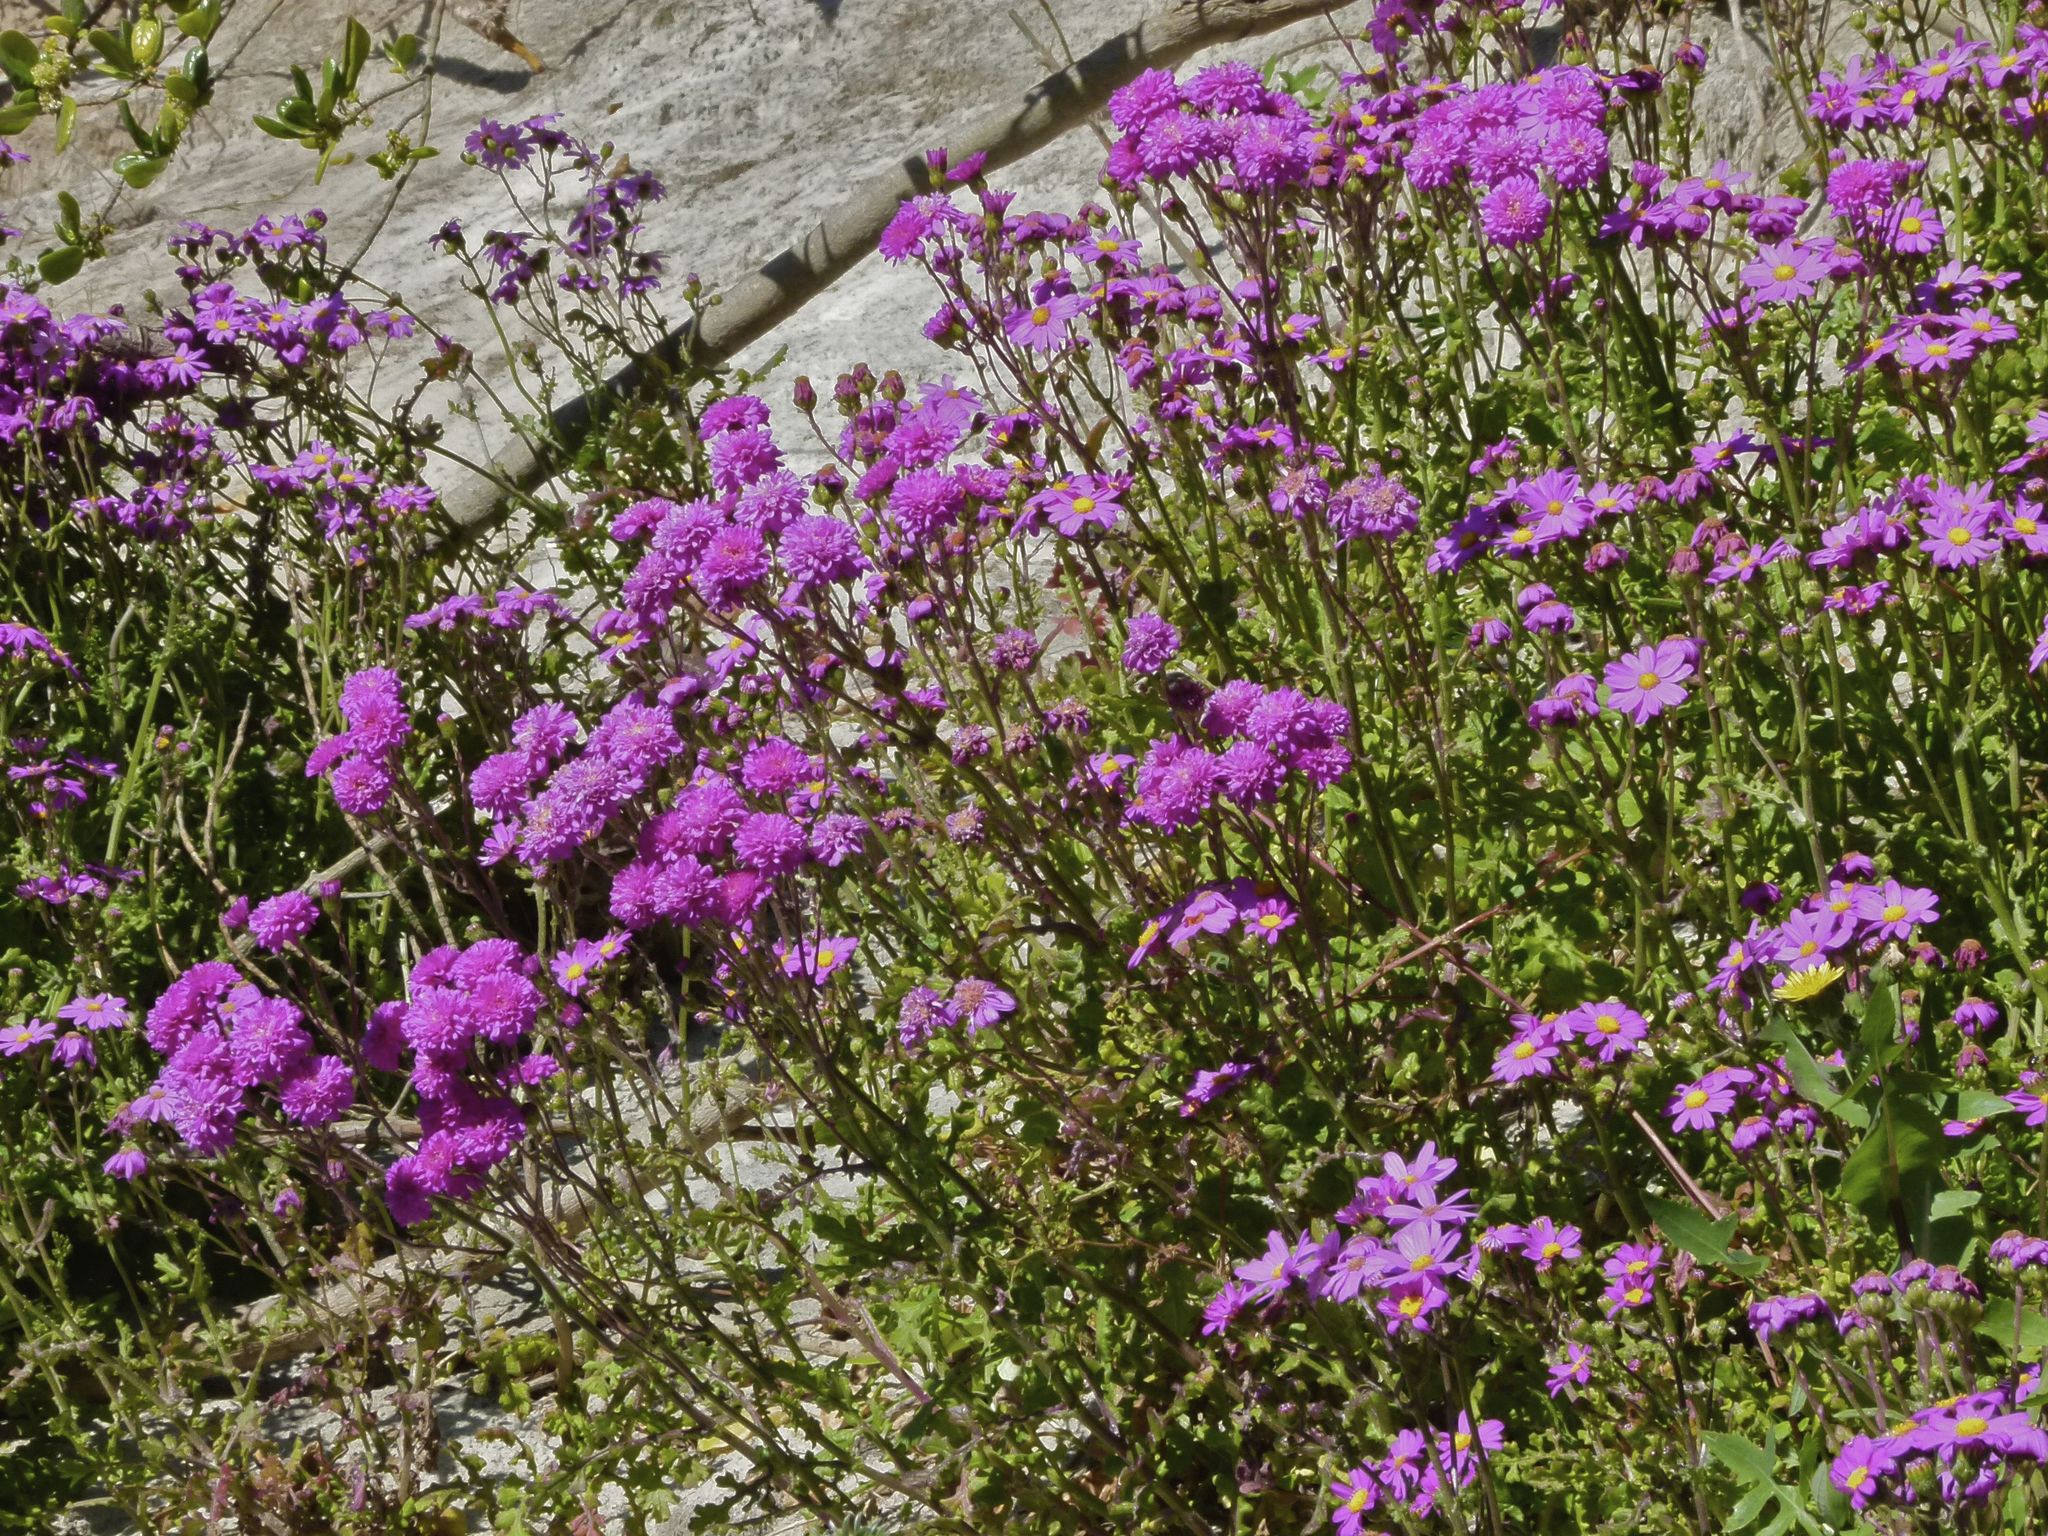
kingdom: Plantae
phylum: Tracheophyta
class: Magnoliopsida
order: Asterales
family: Asteraceae
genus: Senecio
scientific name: Senecio elegans
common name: Purple groundsel
